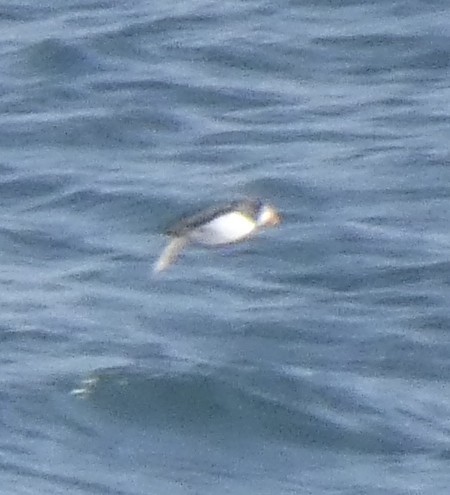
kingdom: Animalia
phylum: Chordata
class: Aves
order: Charadriiformes
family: Alcidae
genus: Fratercula
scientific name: Fratercula arctica
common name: Atlantic puffin
